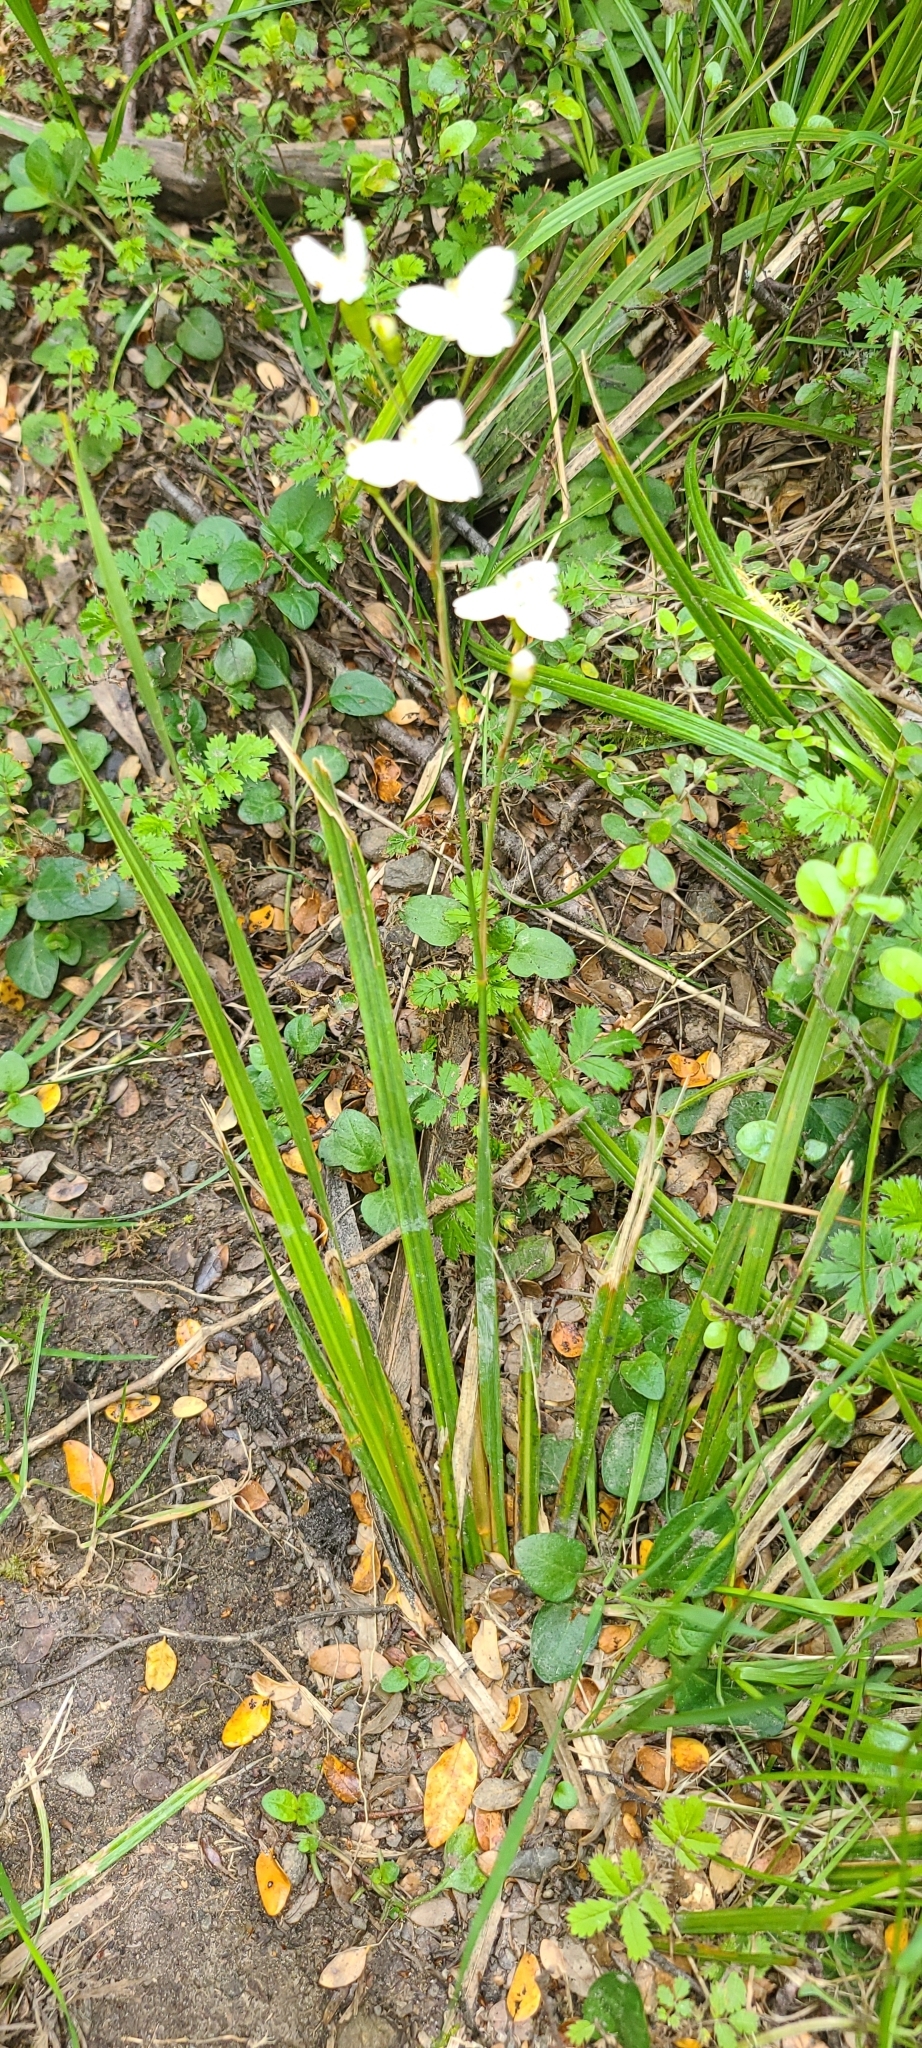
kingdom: Plantae
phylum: Tracheophyta
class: Liliopsida
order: Asparagales
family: Iridaceae
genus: Libertia
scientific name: Libertia ixioides
